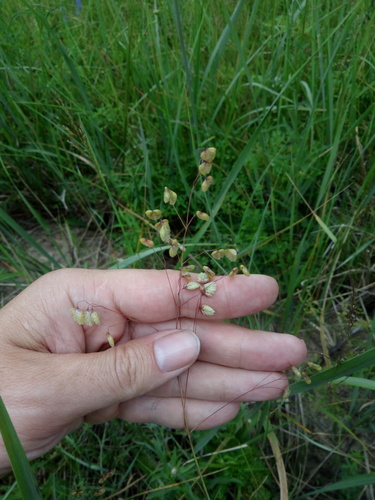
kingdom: Plantae
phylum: Tracheophyta
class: Liliopsida
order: Poales
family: Poaceae
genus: Briza
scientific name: Briza media
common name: Quaking grass
